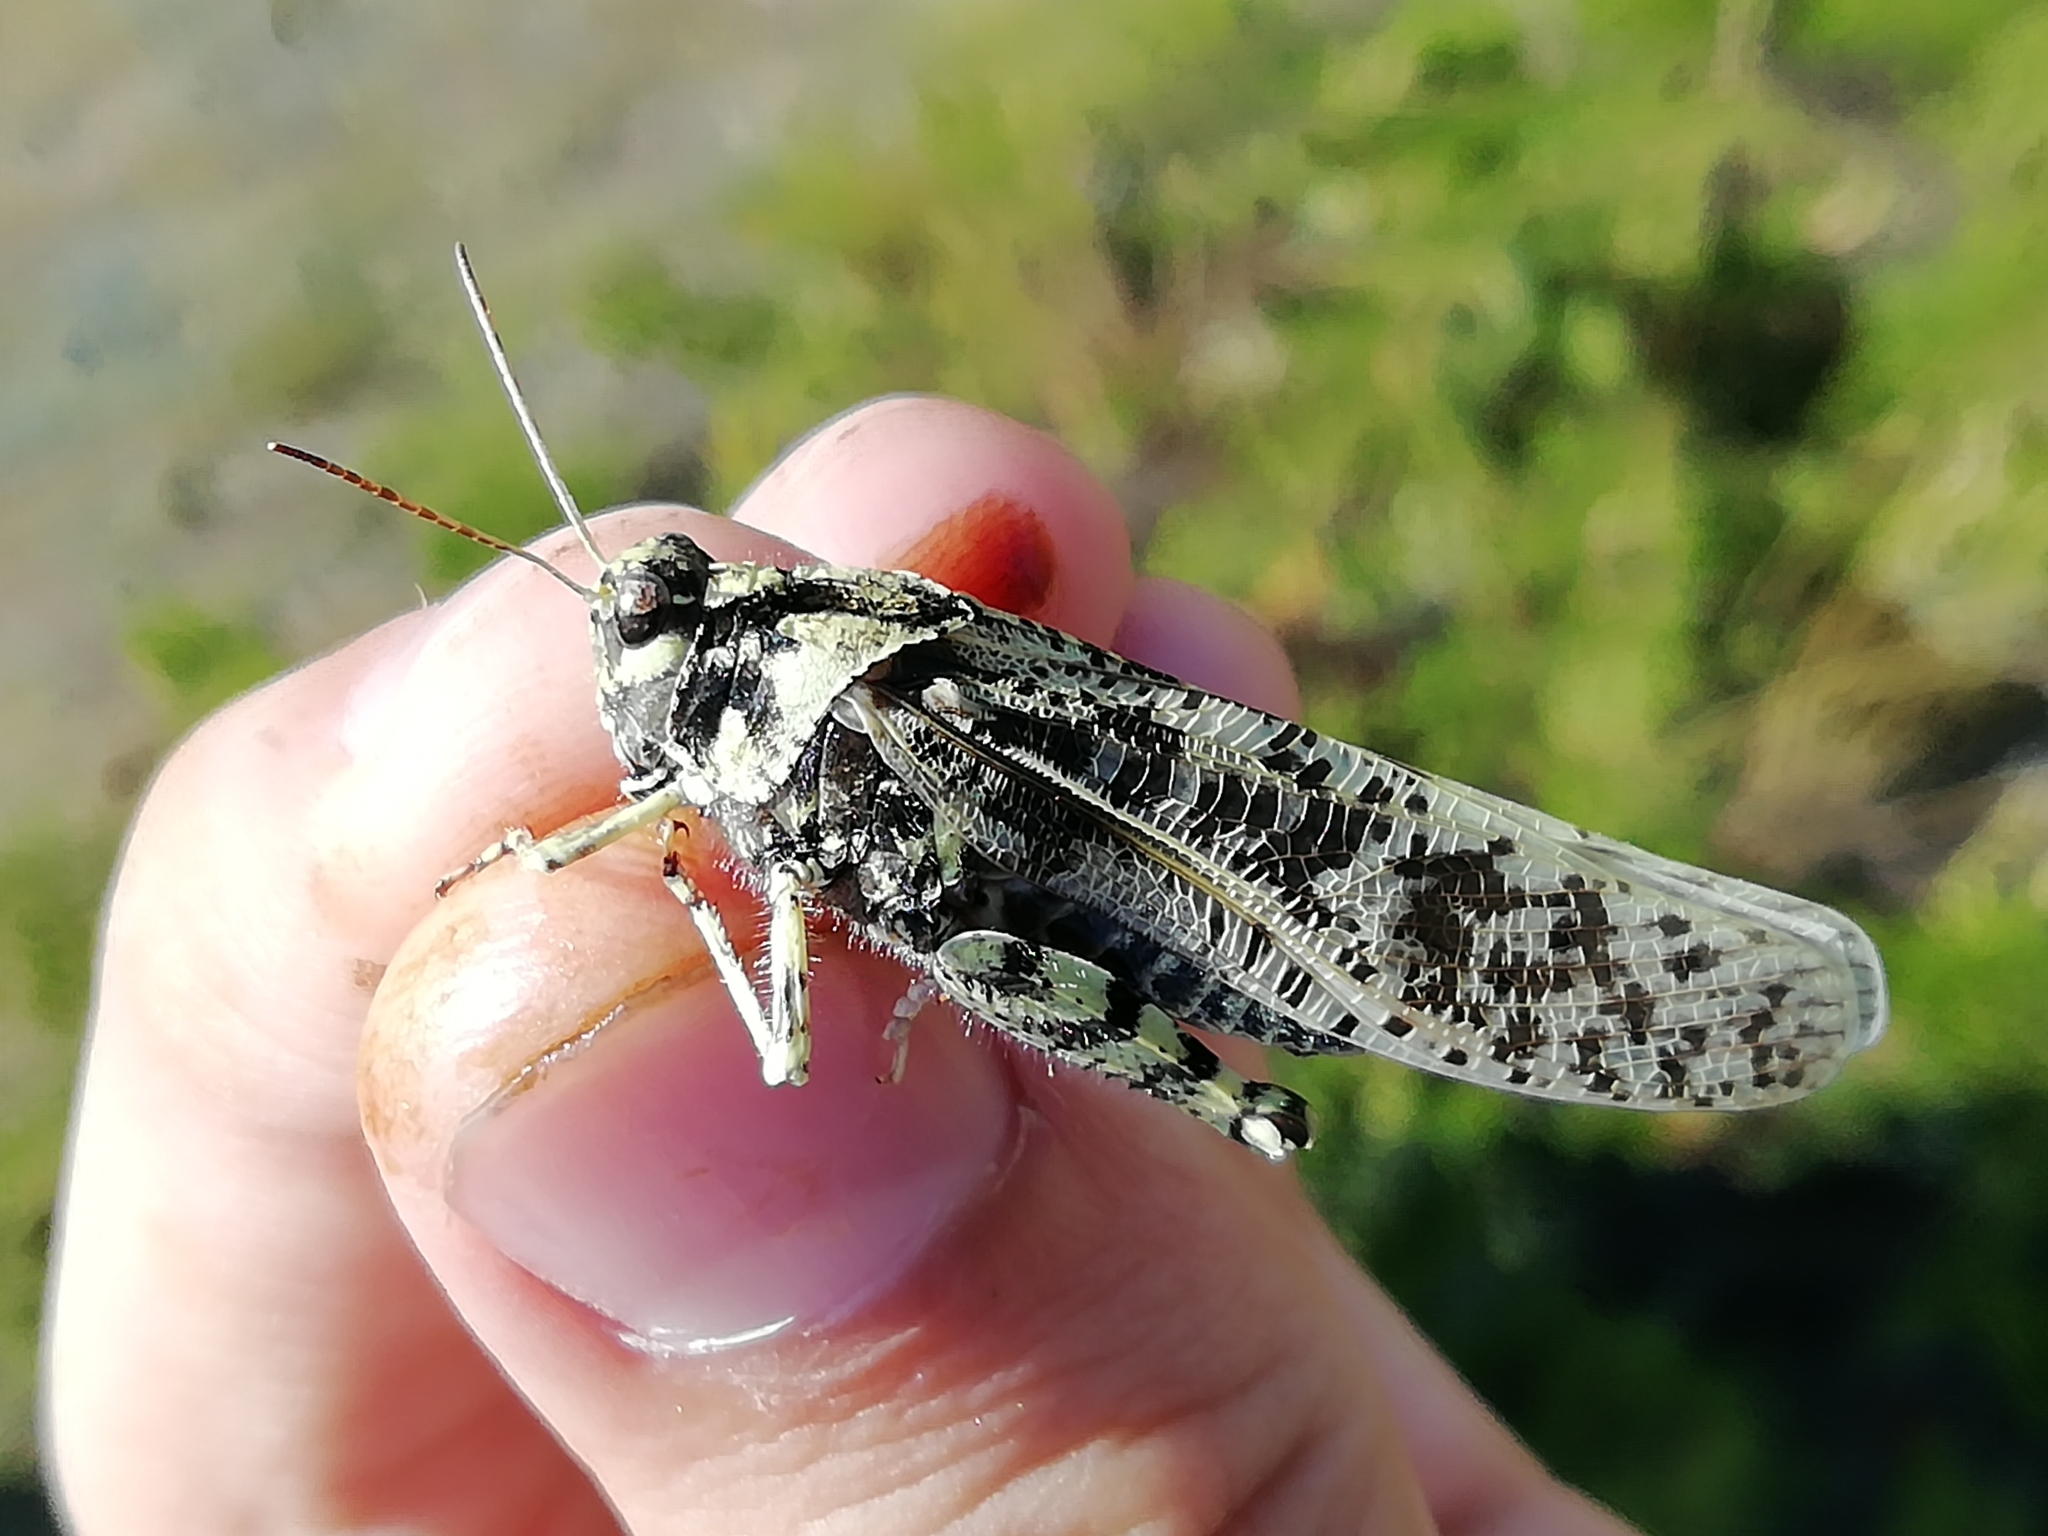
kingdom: Animalia
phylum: Arthropoda
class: Insecta
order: Orthoptera
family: Acrididae
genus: Angaracris
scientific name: Angaracris barabensis
